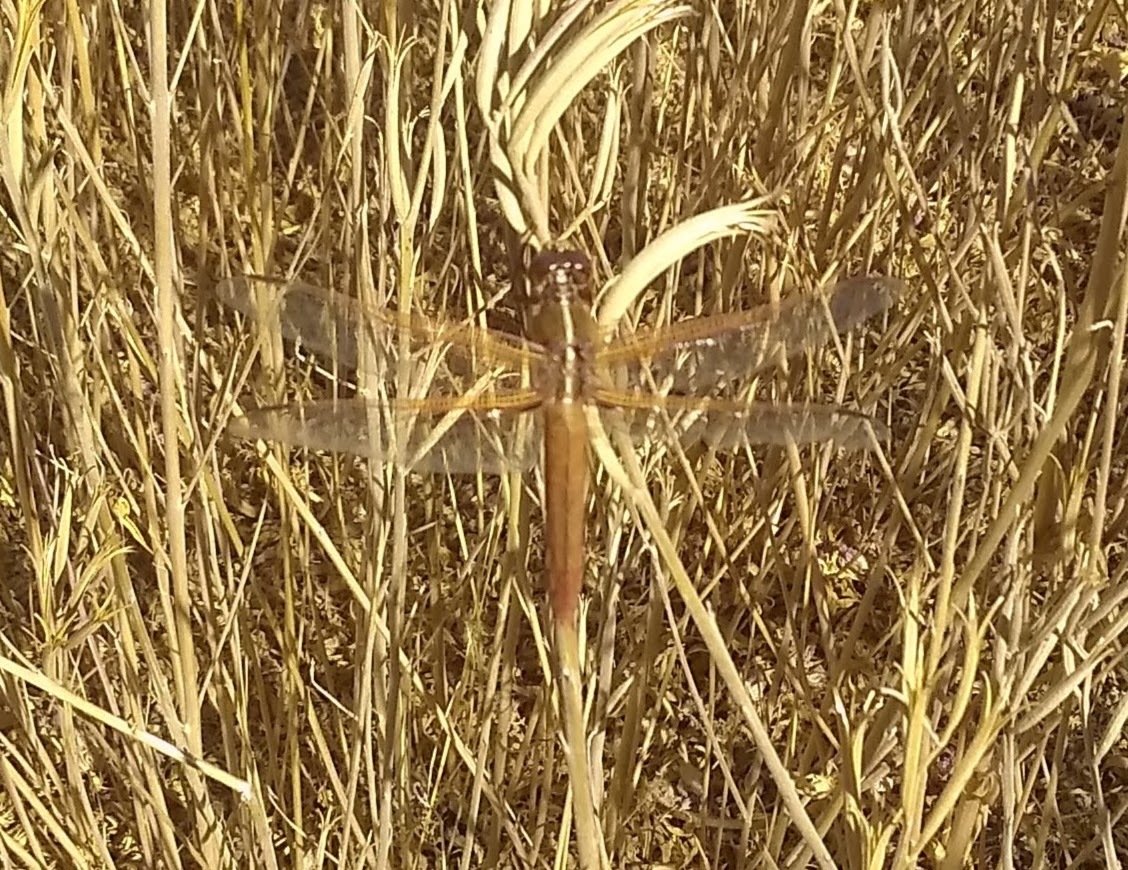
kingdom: Animalia
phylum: Arthropoda
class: Insecta
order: Odonata
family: Libellulidae
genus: Libellula
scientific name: Libellula saturata
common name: Flame skimmer
